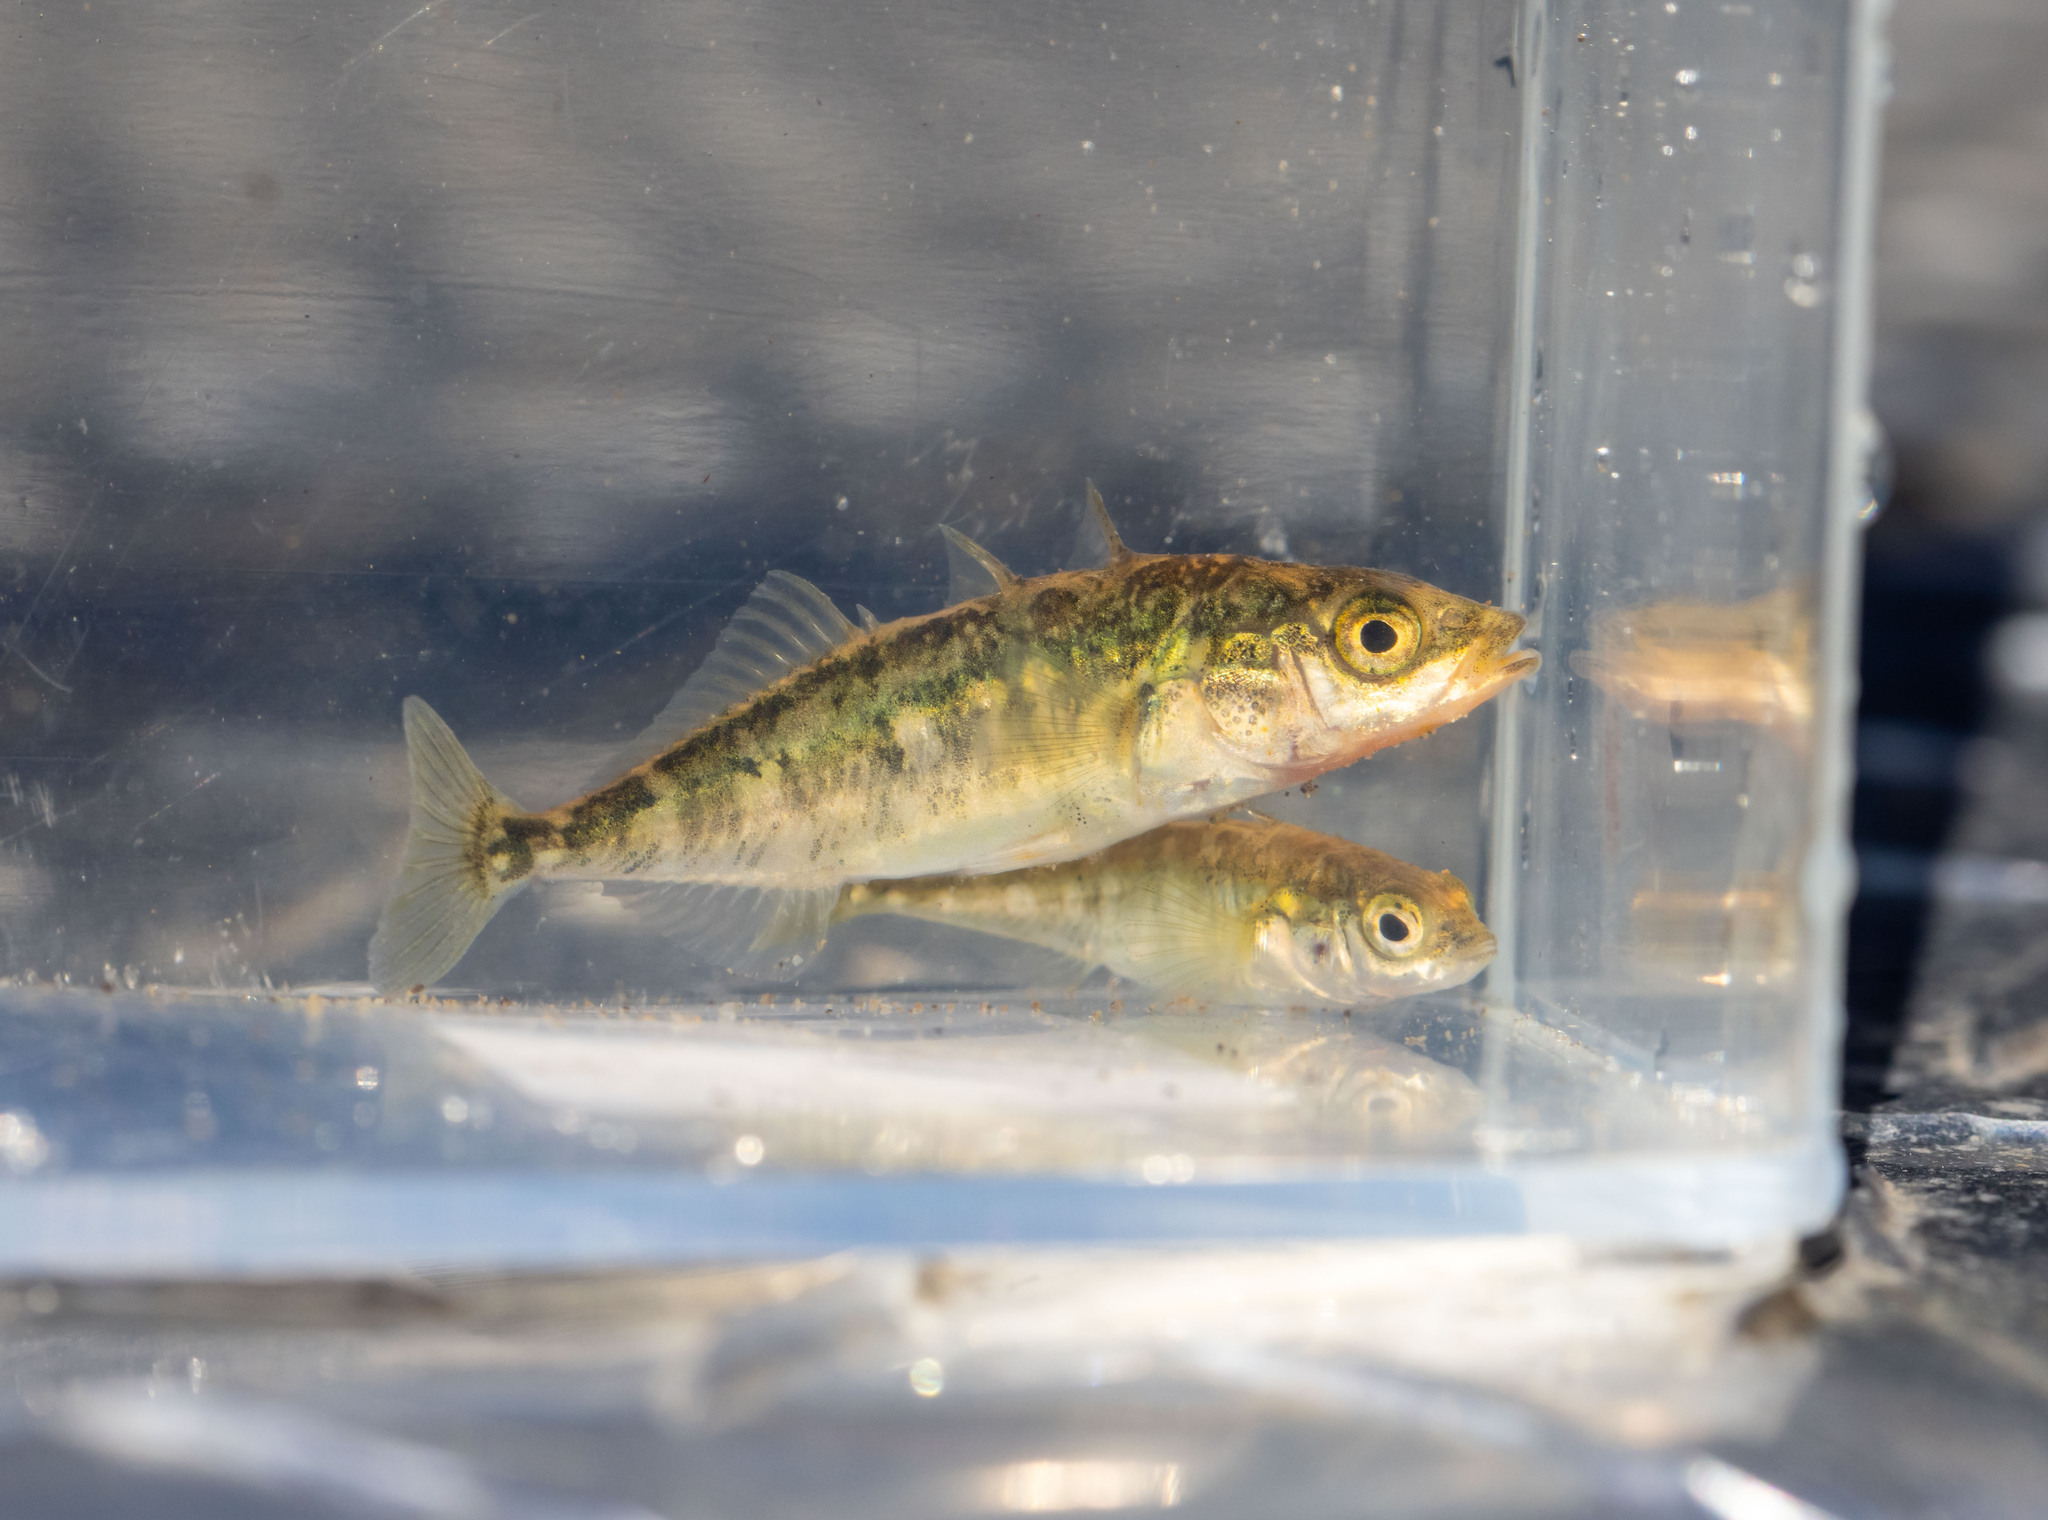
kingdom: Animalia
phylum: Chordata
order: Gasterosteiformes
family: Gasterosteidae
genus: Gasterosteus
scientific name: Gasterosteus aculeatus
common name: Three-spined stickleback
